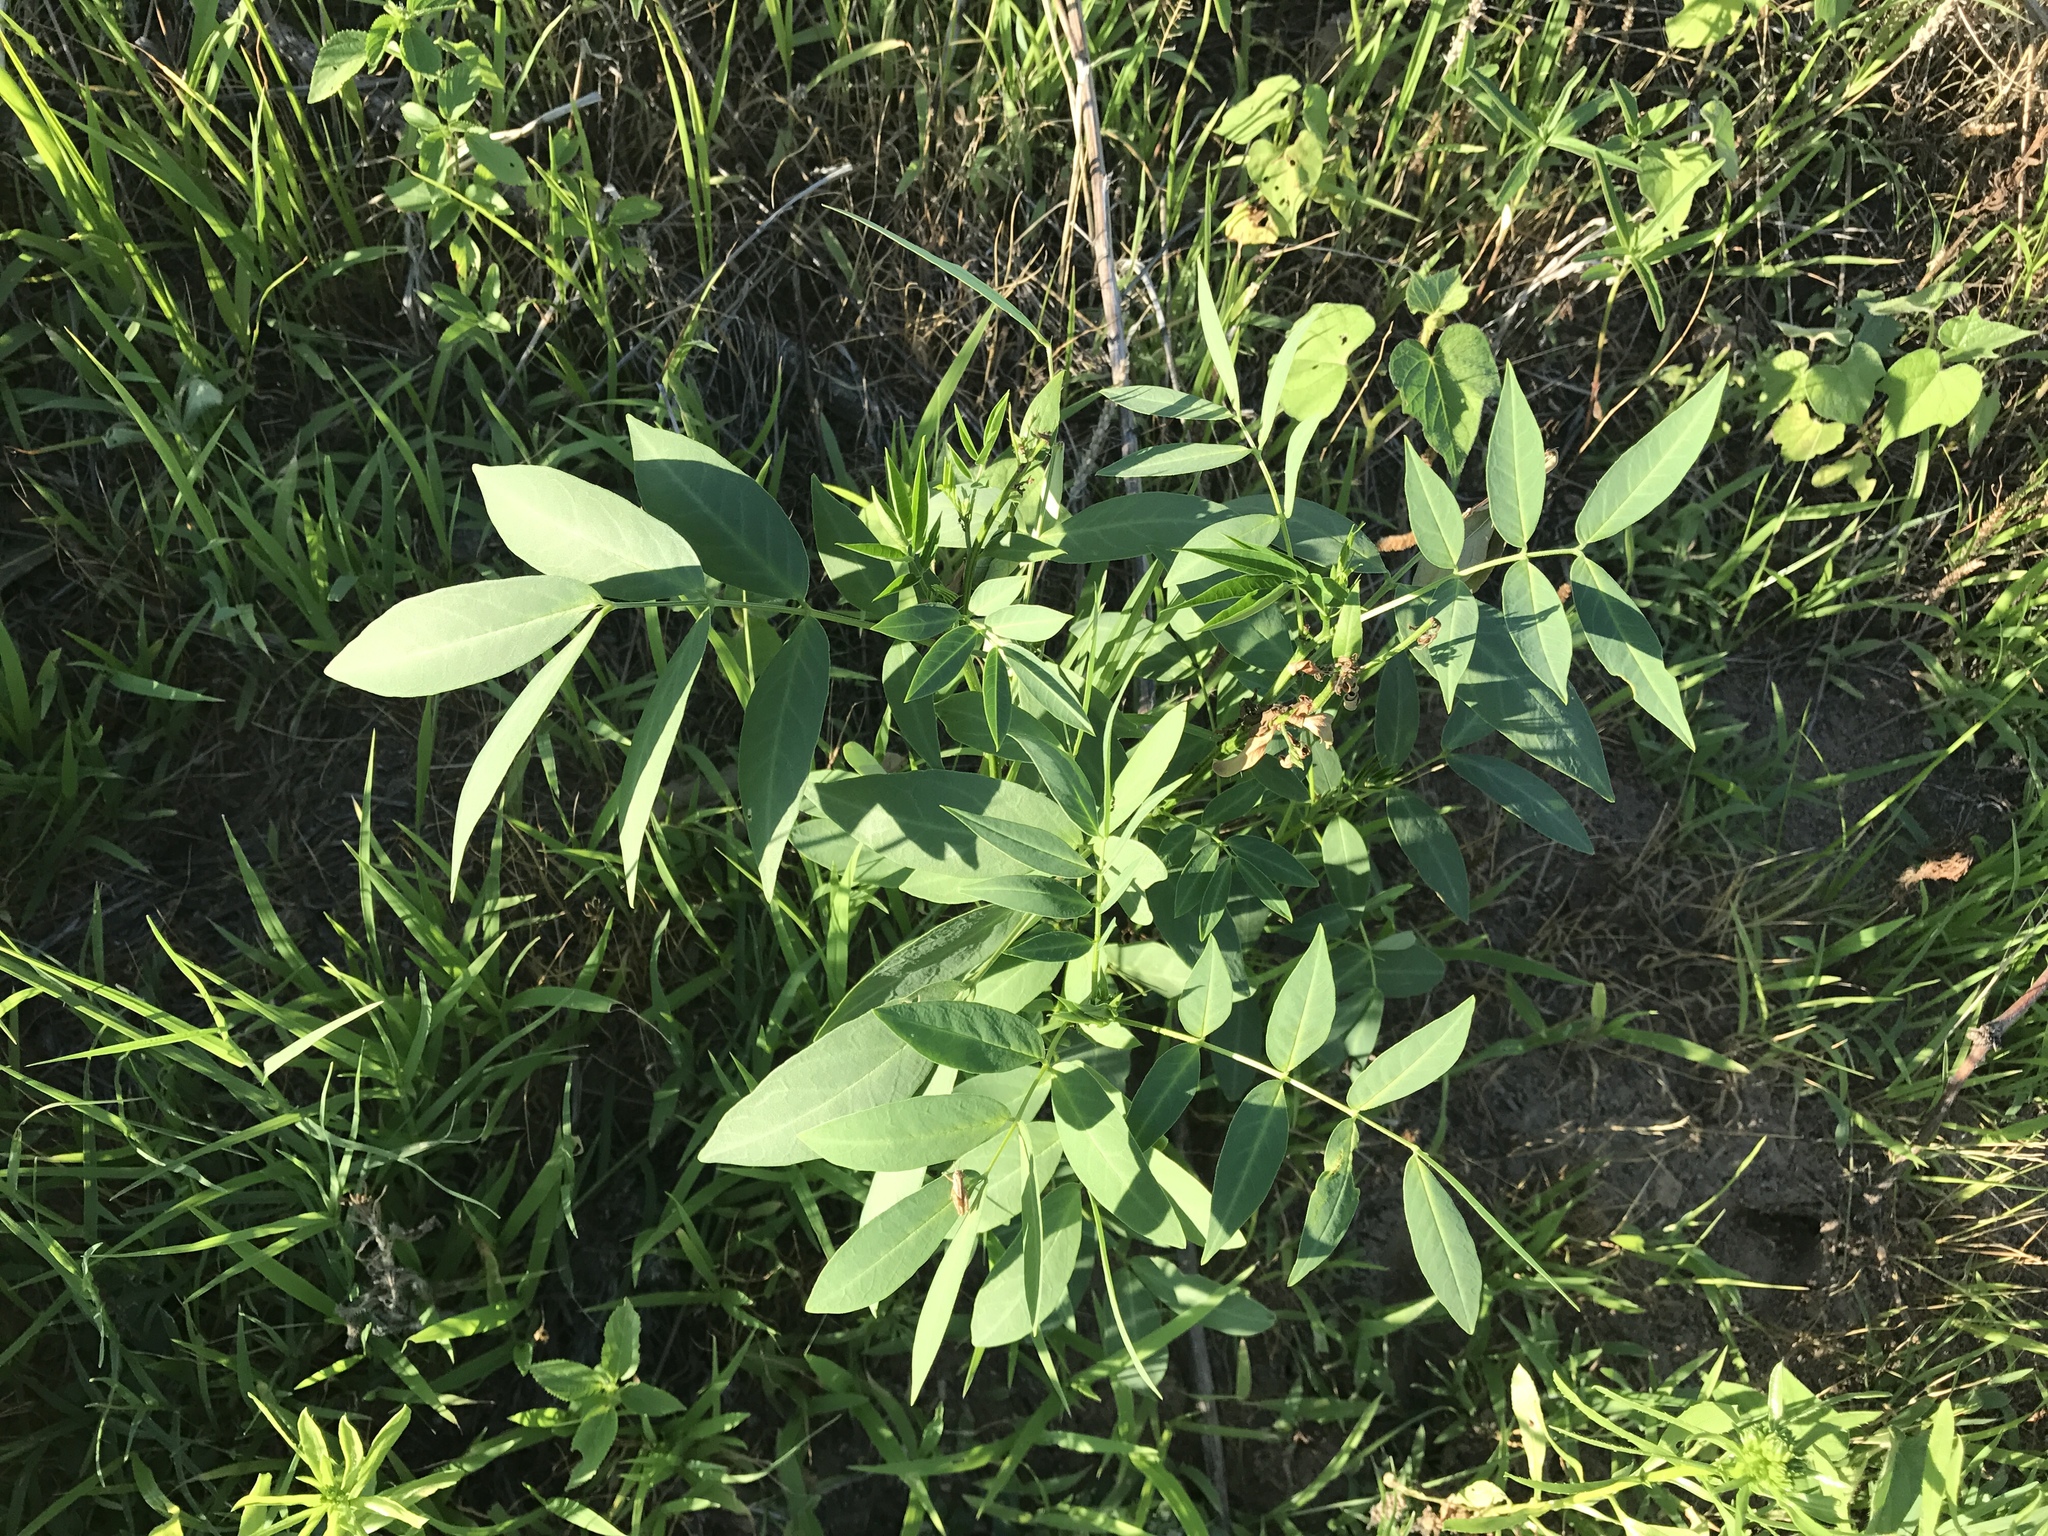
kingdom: Plantae
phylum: Tracheophyta
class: Magnoliopsida
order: Fabales
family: Fabaceae
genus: Senna
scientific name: Senna hirsuta
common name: Woolly senna
